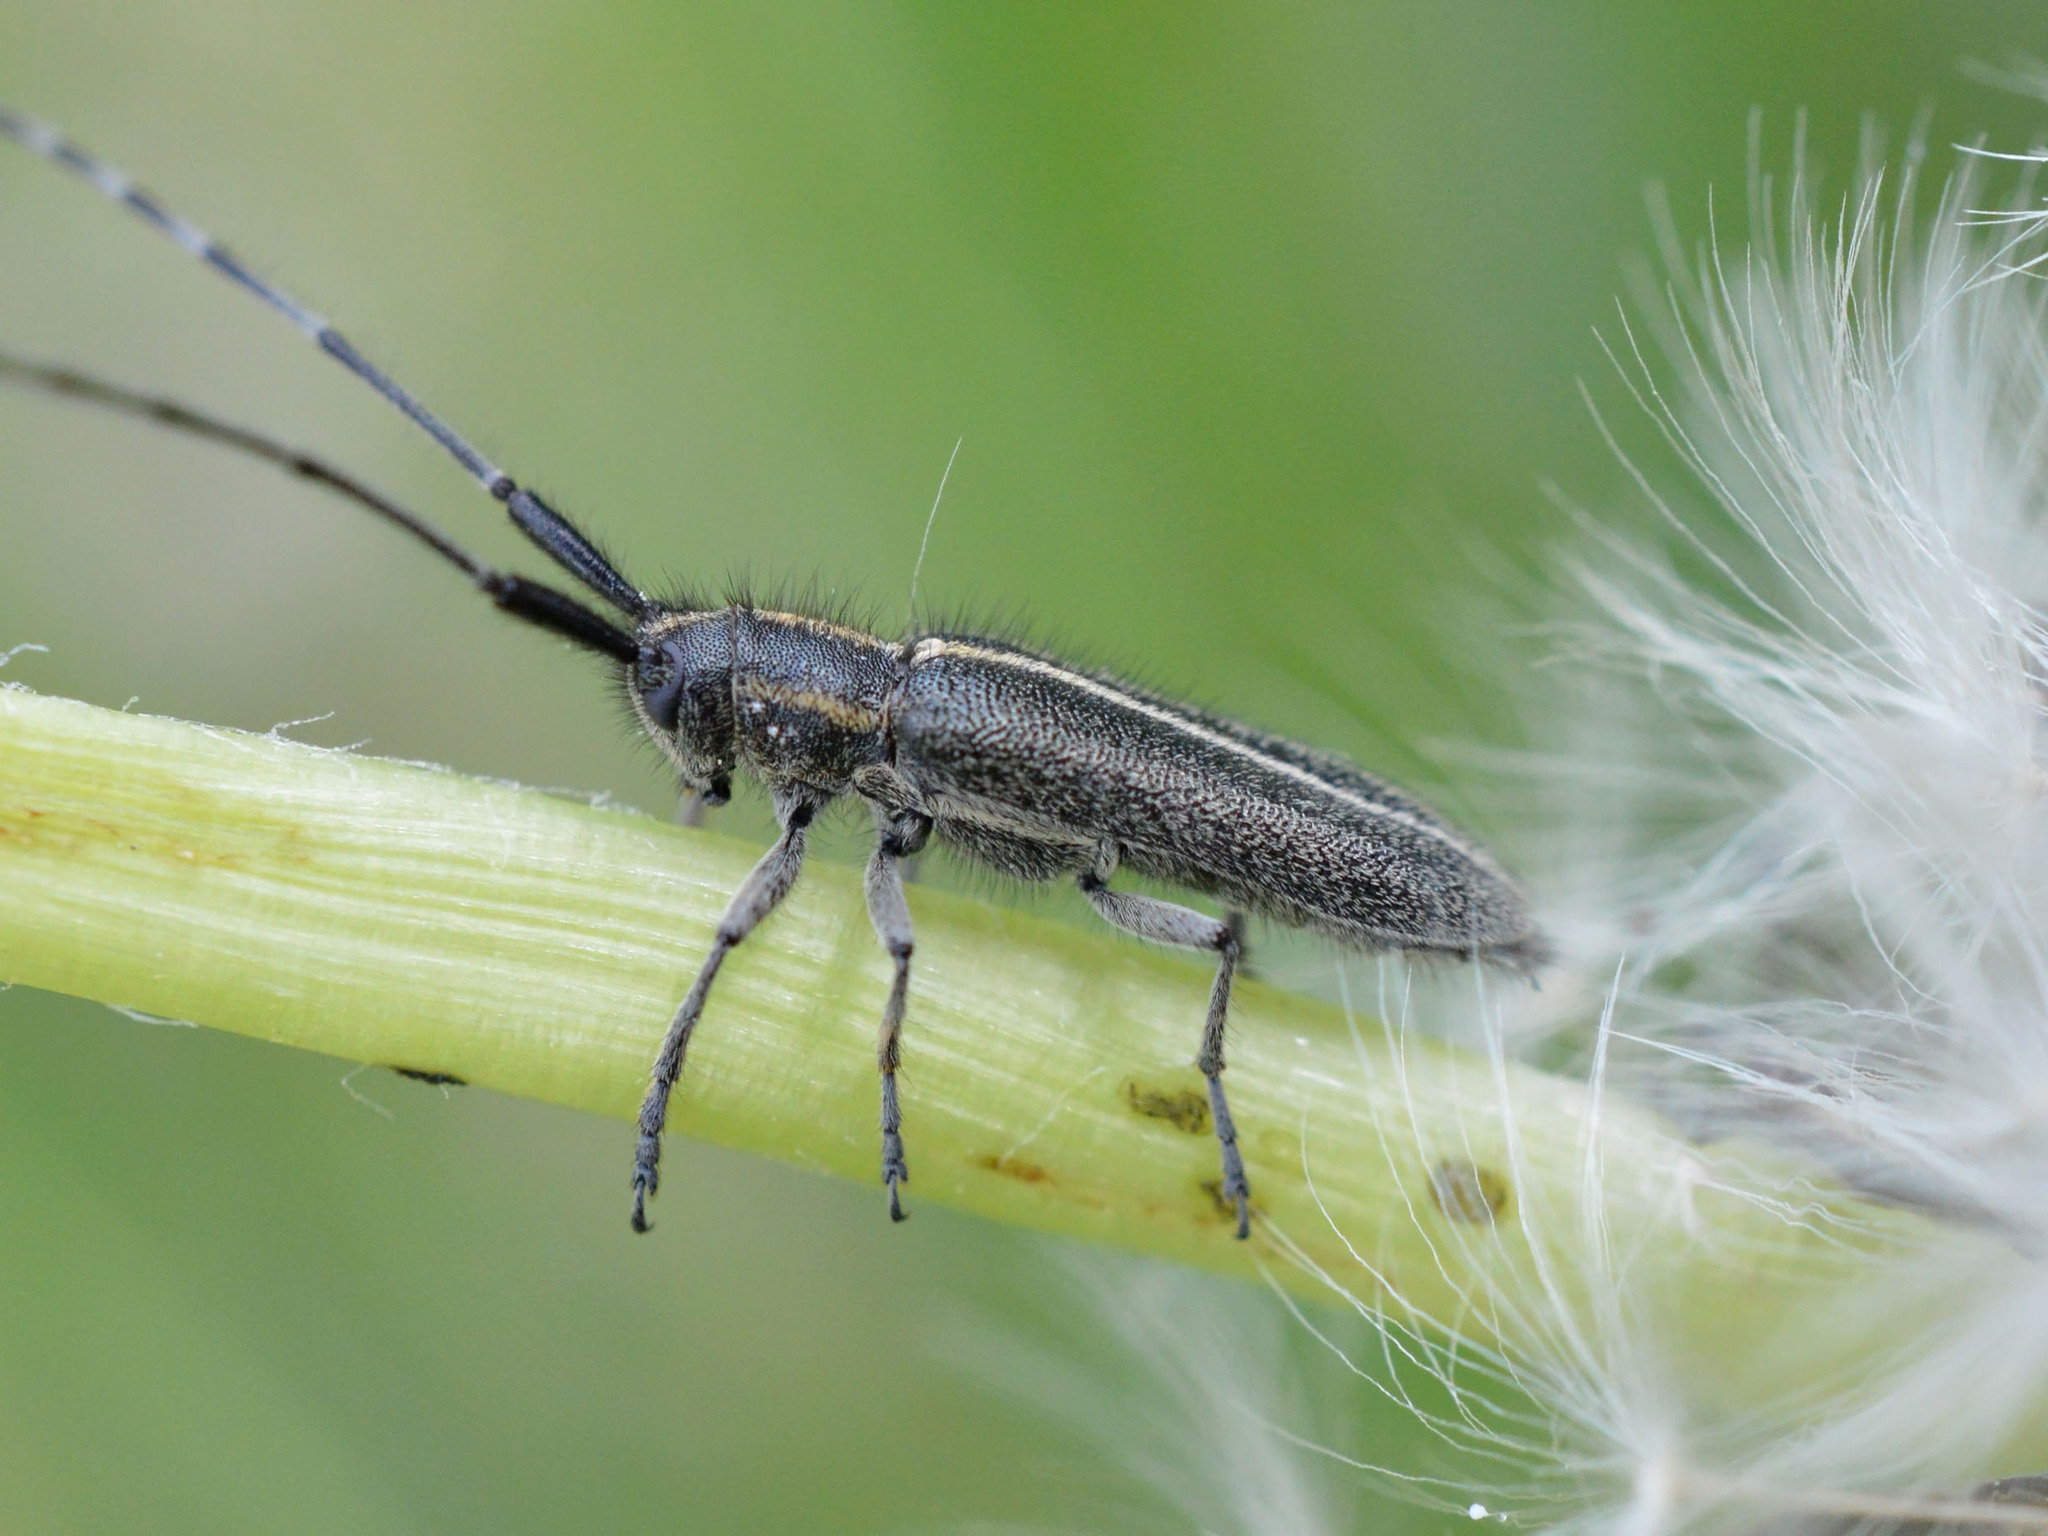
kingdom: Animalia
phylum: Arthropoda
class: Insecta
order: Coleoptera
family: Cerambycidae
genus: Agapanthia
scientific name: Agapanthia cardui
